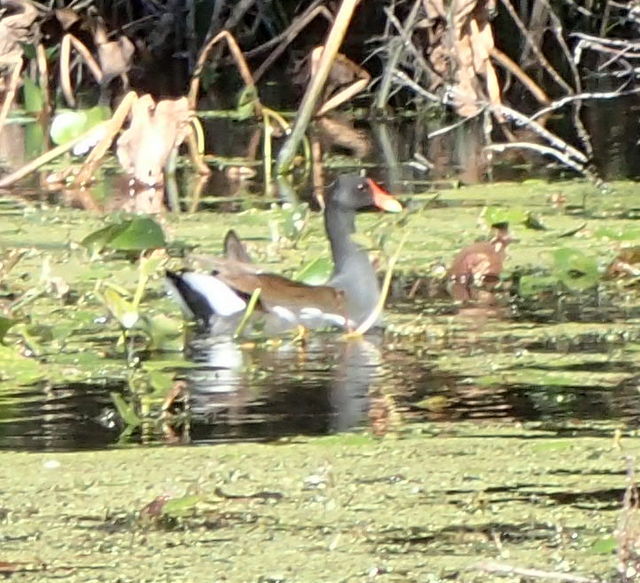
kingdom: Animalia
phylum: Chordata
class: Aves
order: Gruiformes
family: Rallidae
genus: Gallinula
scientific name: Gallinula chloropus
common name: Common moorhen
